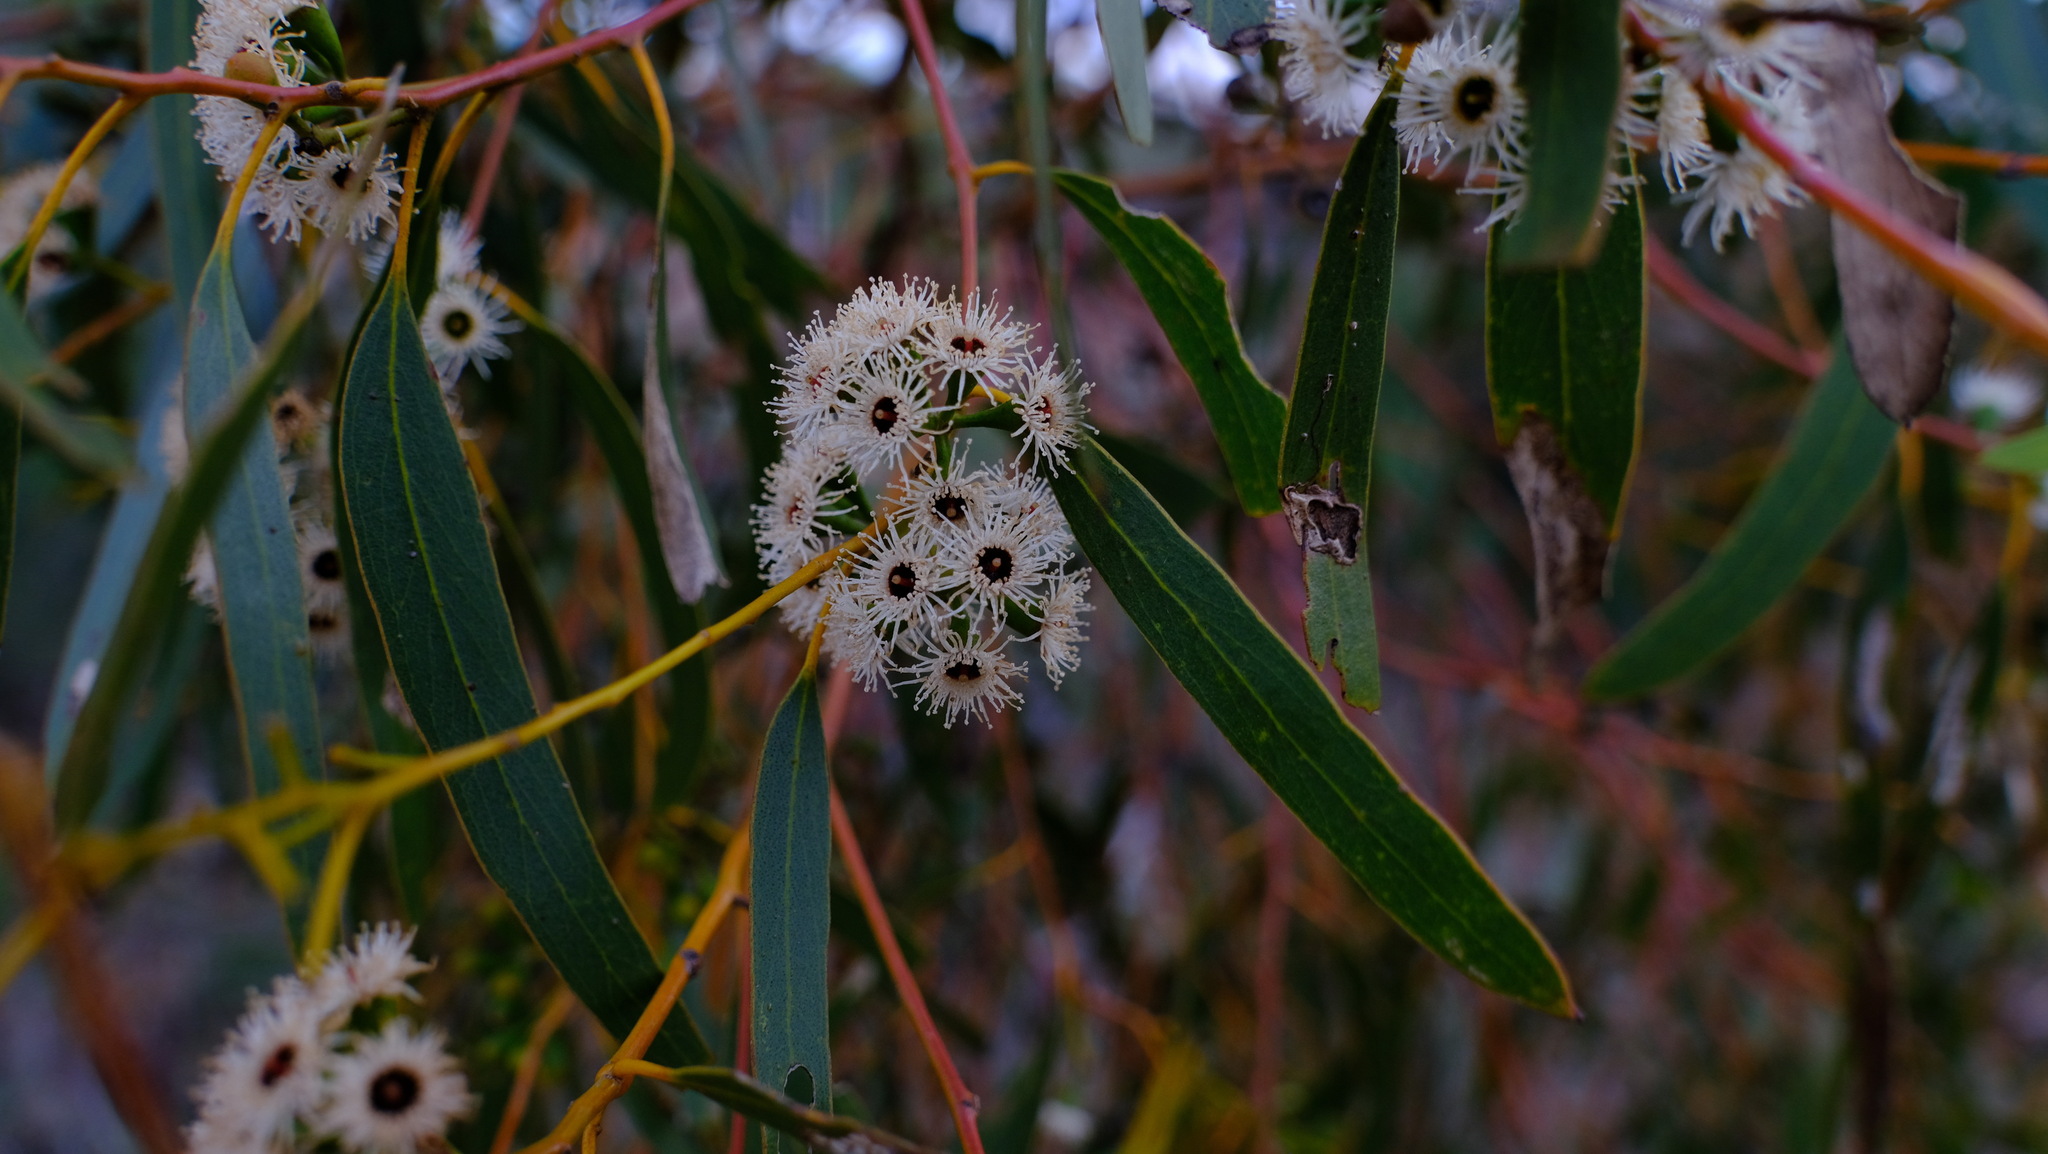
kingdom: Plantae
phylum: Tracheophyta
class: Magnoliopsida
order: Myrtales
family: Myrtaceae
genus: Eucalyptus
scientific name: Eucalyptus loxophleba
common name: York gum
